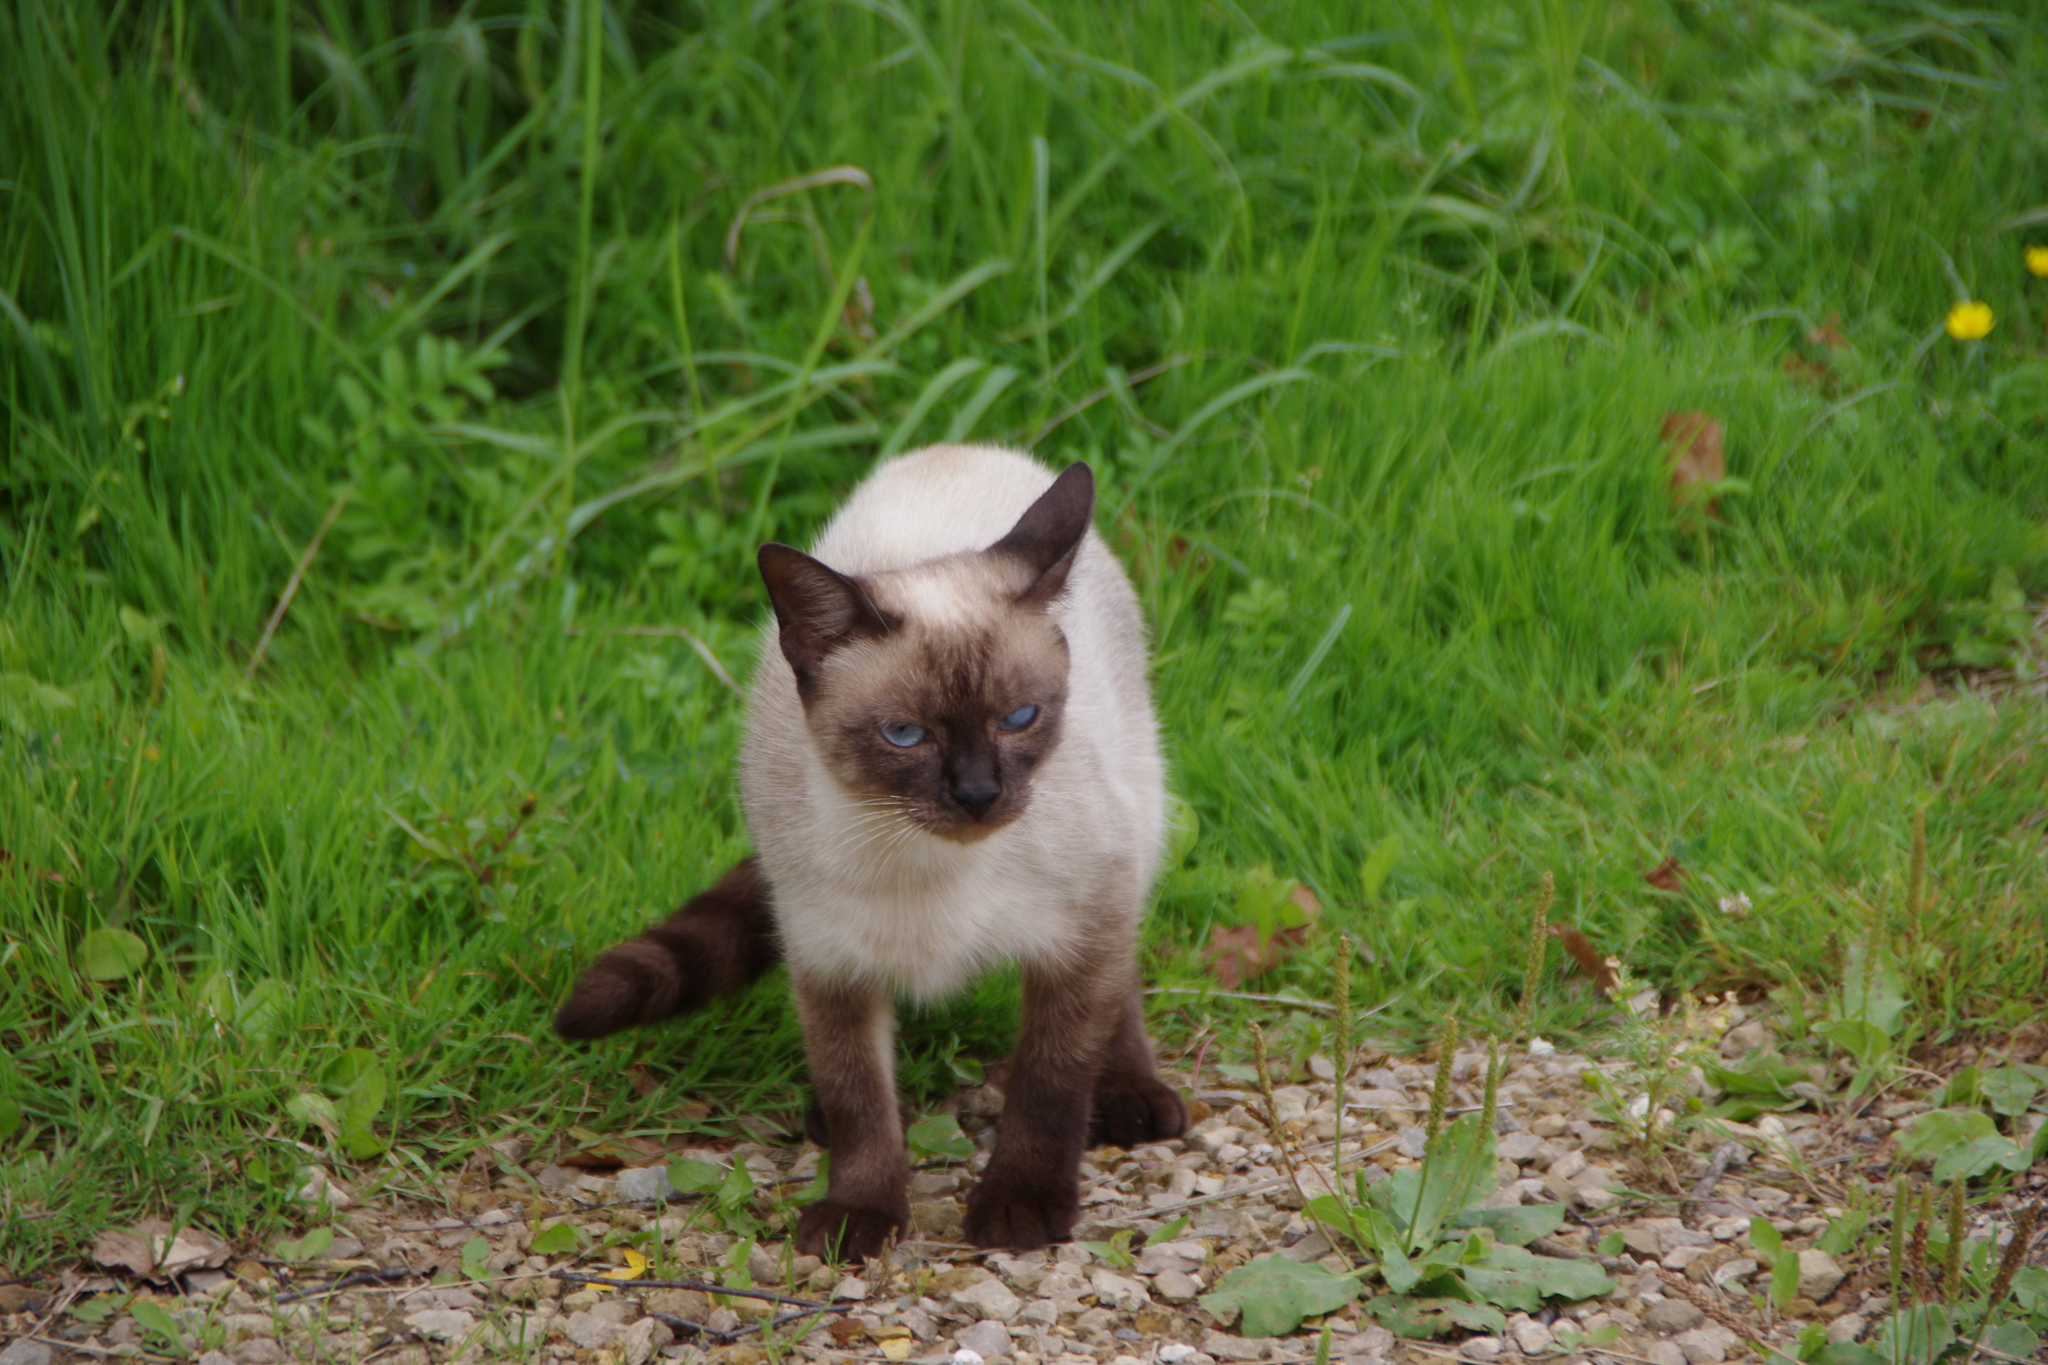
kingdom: Animalia
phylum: Chordata
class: Mammalia
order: Carnivora
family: Felidae
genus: Felis
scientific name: Felis catus
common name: Domestic cat
